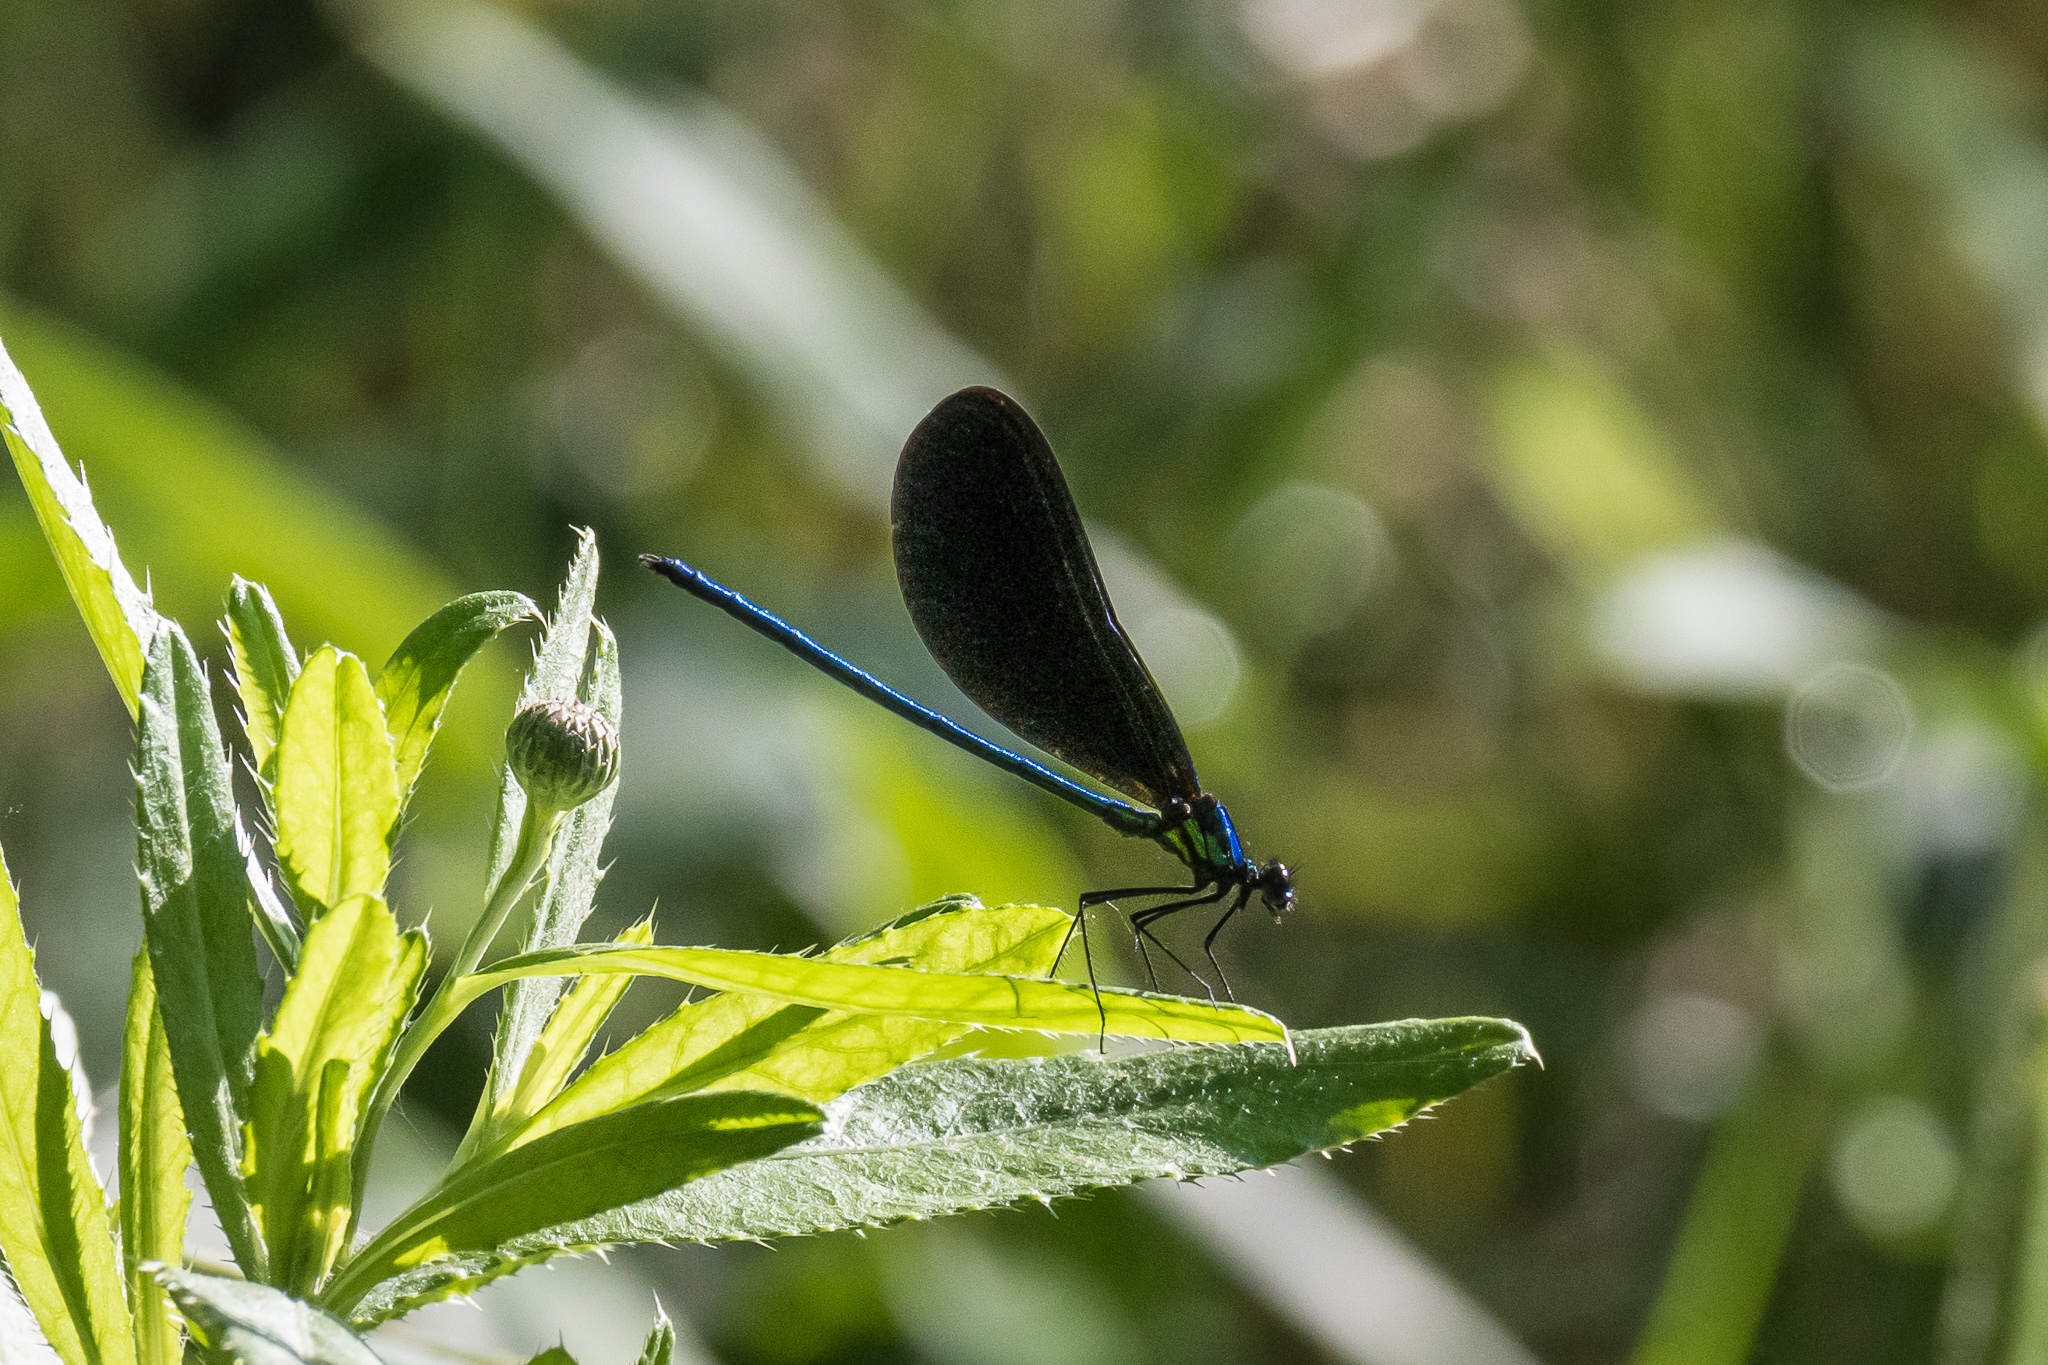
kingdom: Animalia
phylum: Arthropoda
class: Insecta
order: Odonata
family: Calopterygidae
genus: Calopteryx
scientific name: Calopteryx maculata
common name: Ebony jewelwing
